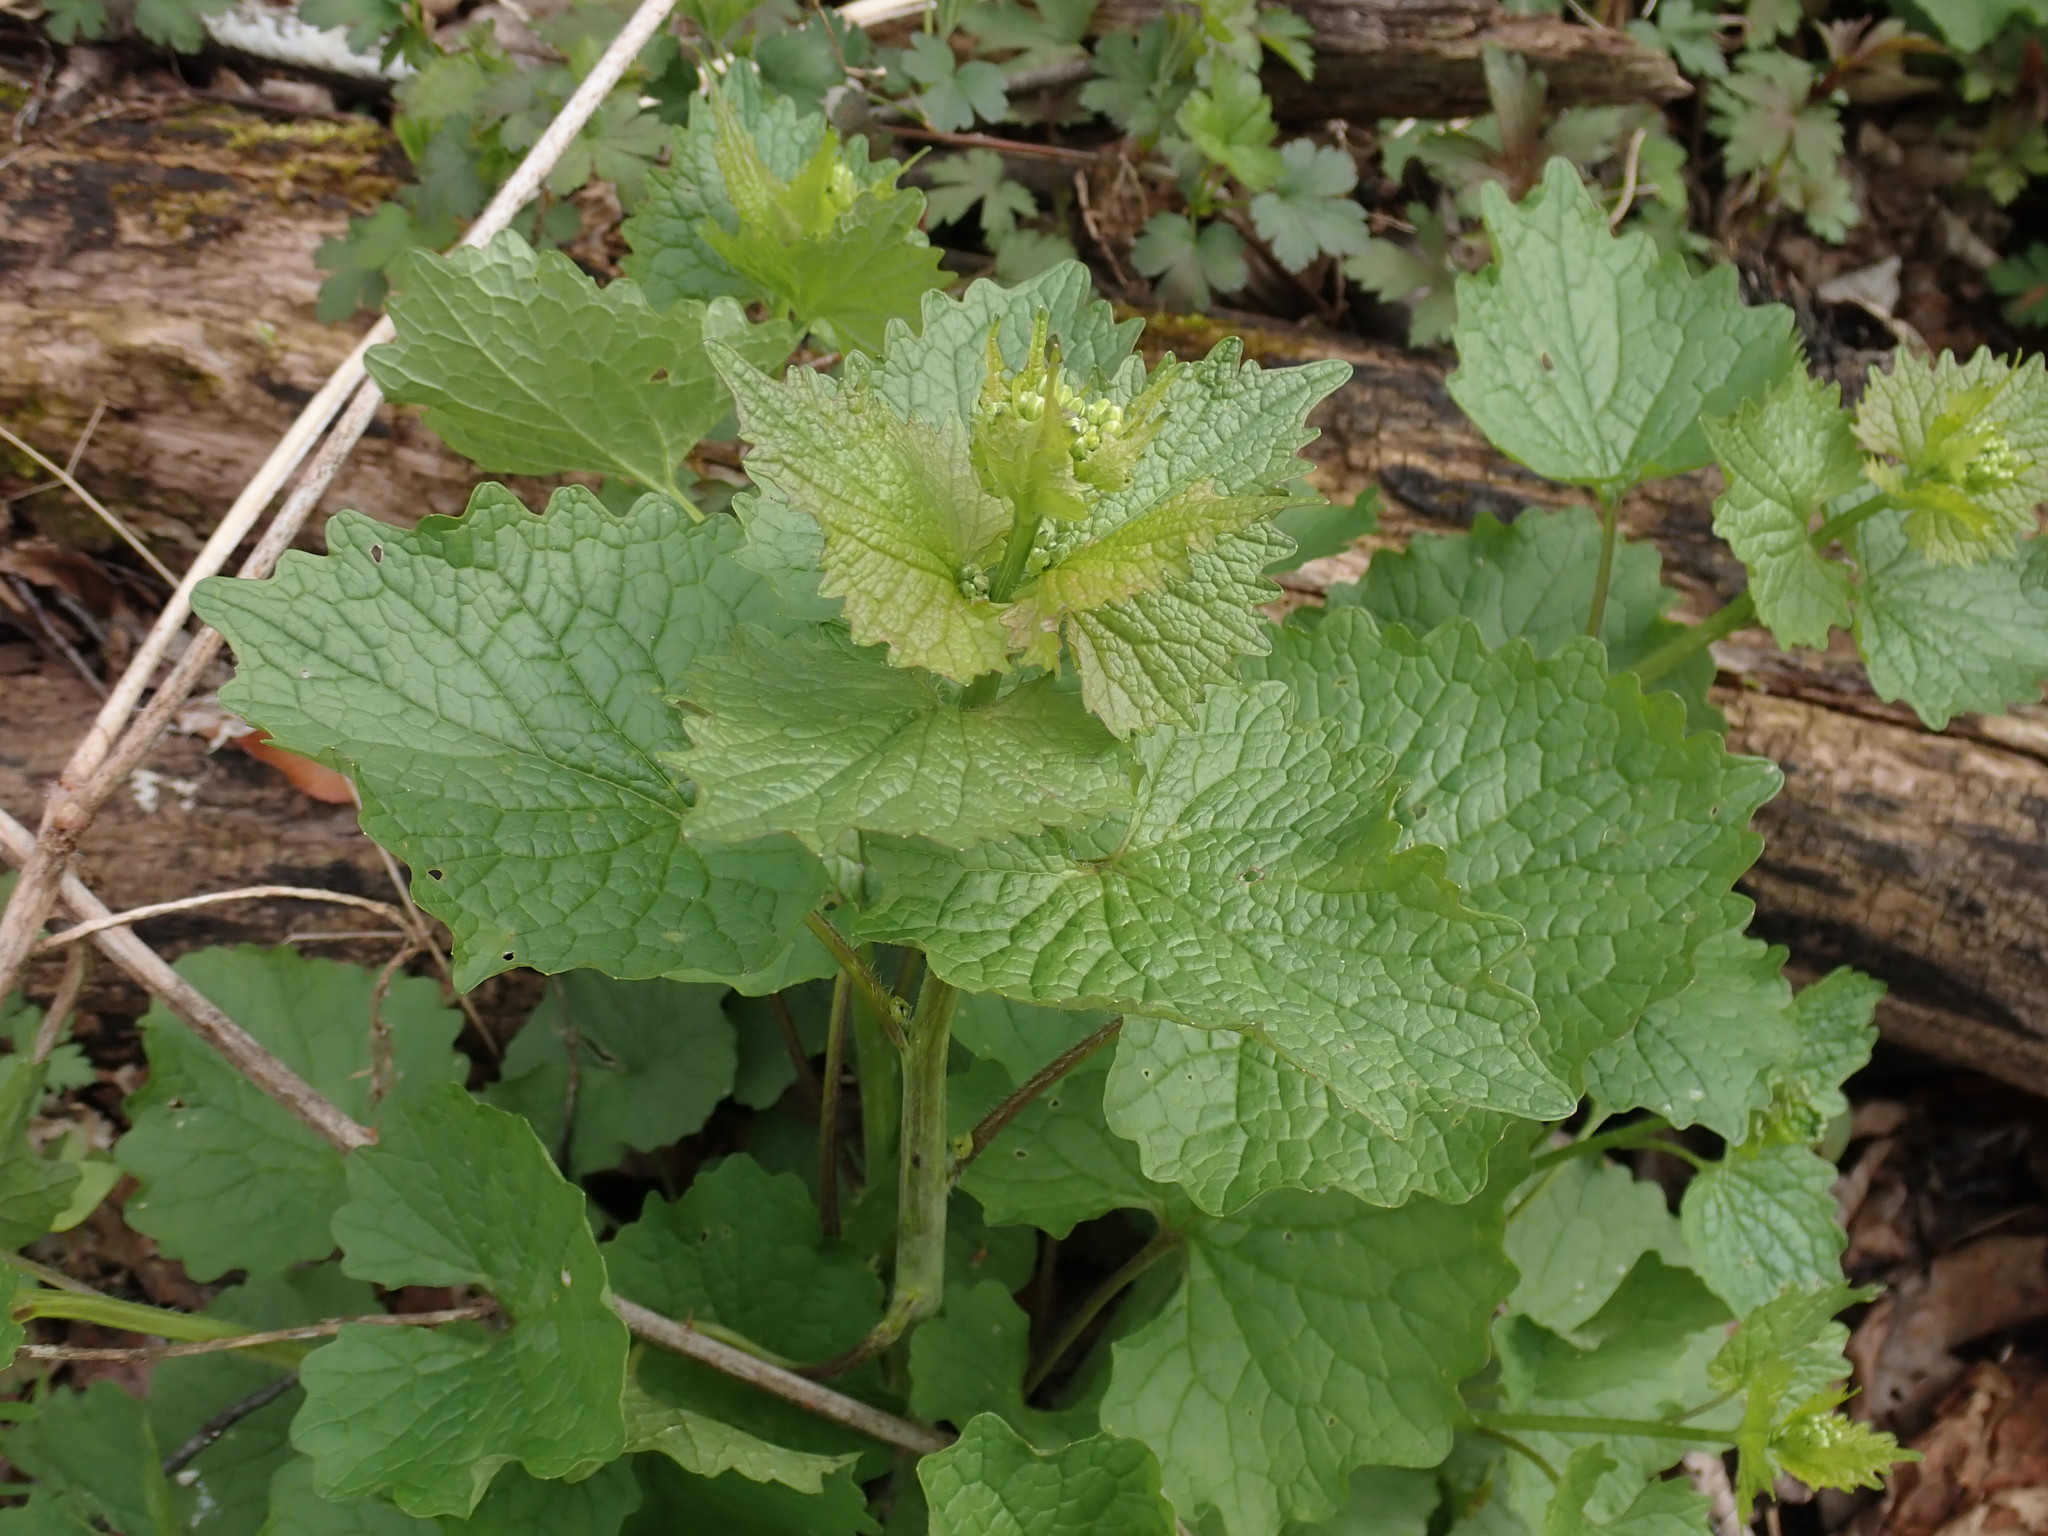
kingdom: Plantae
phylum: Tracheophyta
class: Magnoliopsida
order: Brassicales
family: Brassicaceae
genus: Alliaria
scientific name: Alliaria petiolata
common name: Garlic mustard
